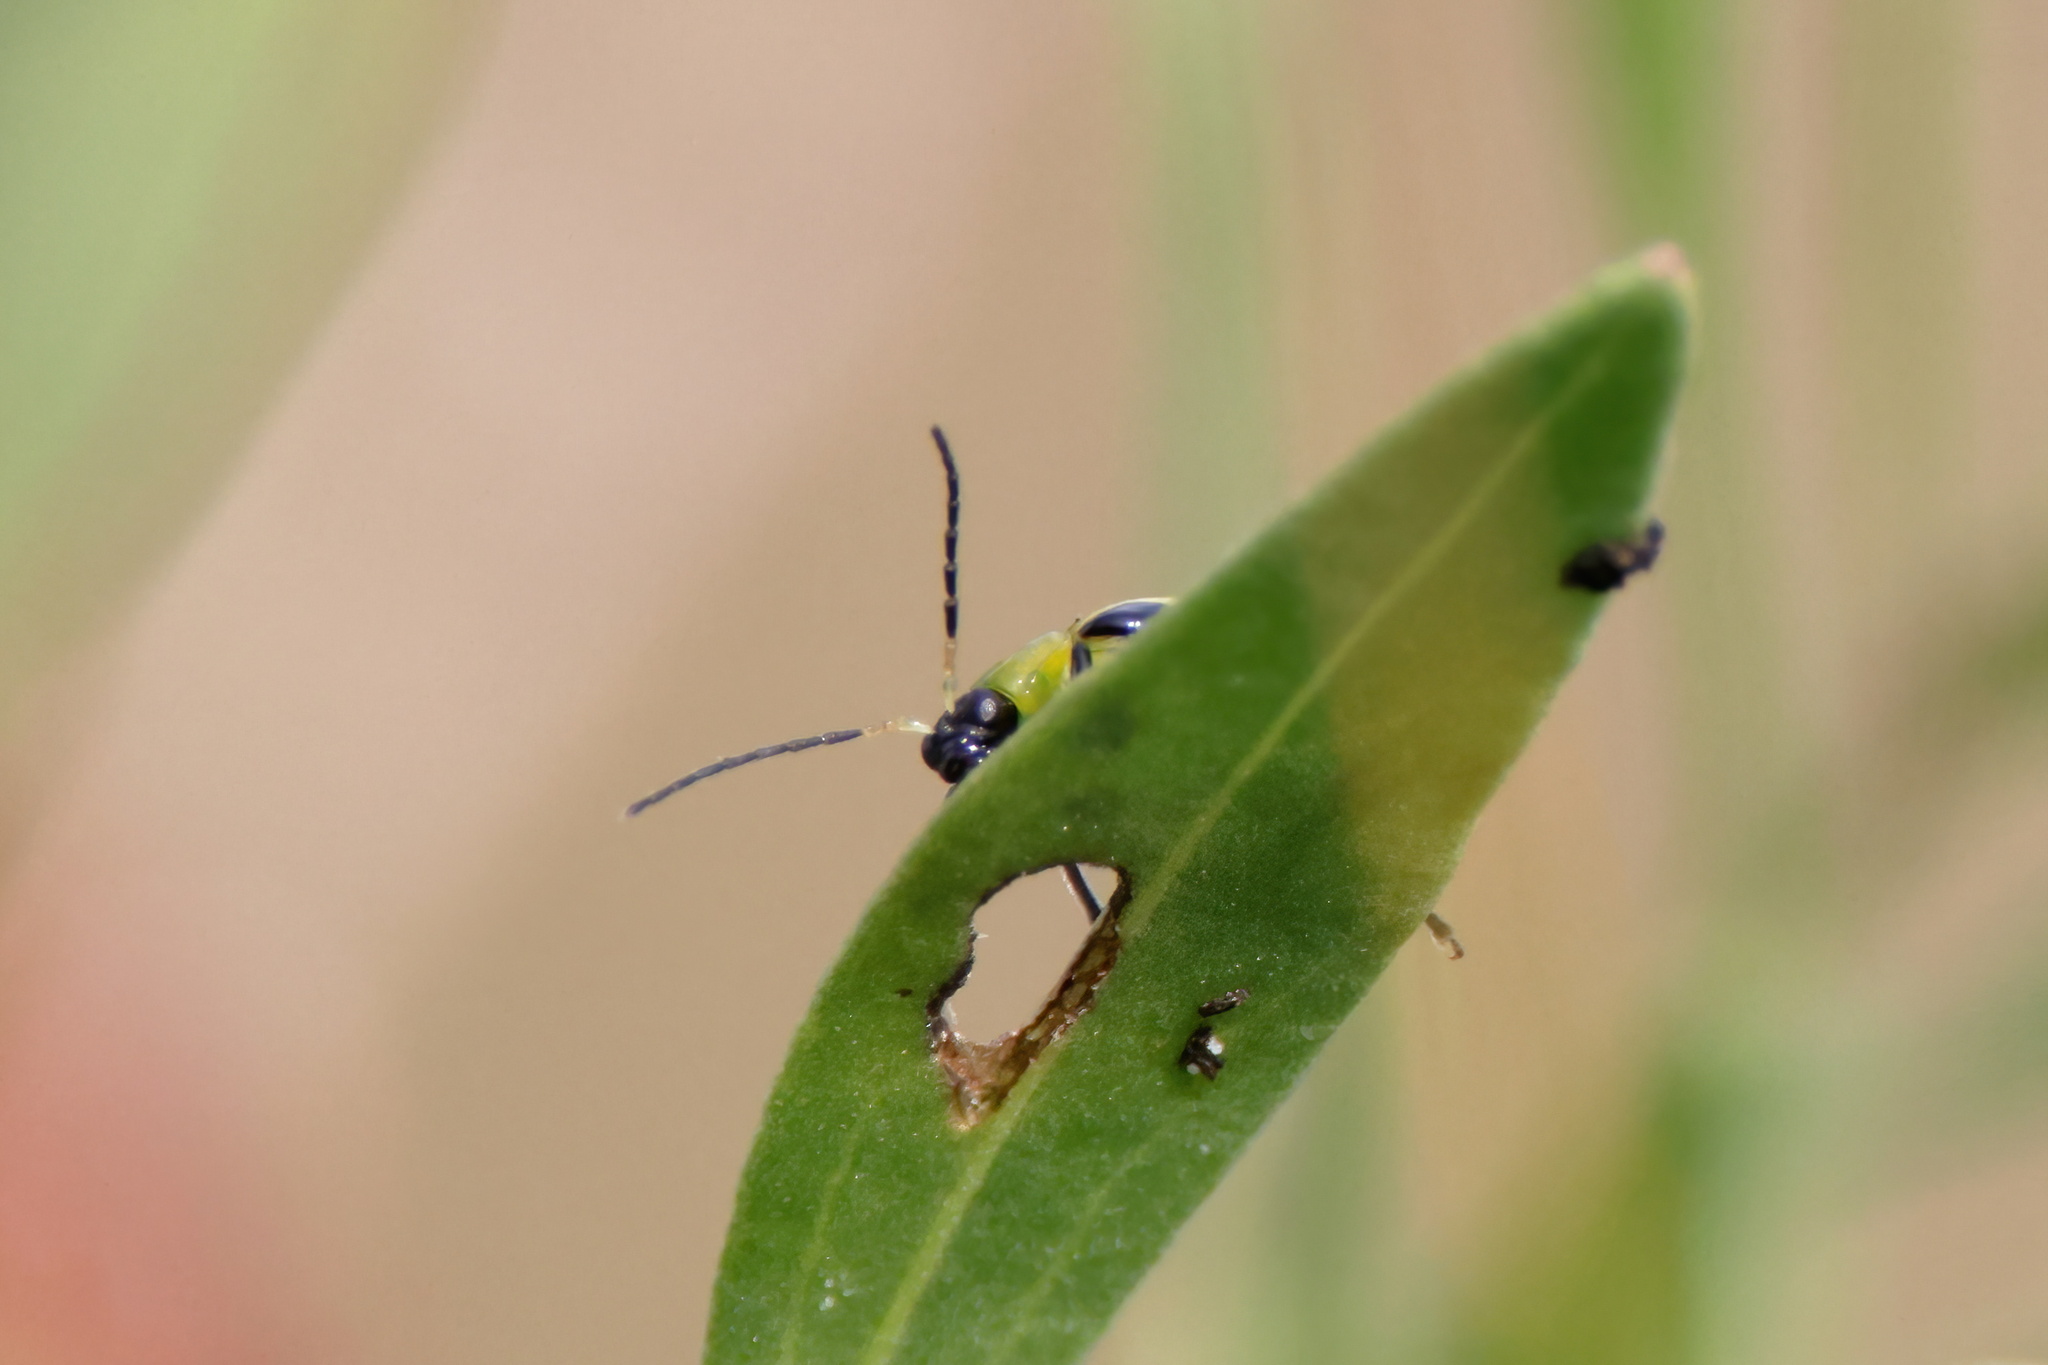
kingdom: Animalia
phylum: Arthropoda
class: Insecta
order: Coleoptera
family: Chrysomelidae
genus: Diabrotica
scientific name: Diabrotica undecimpunctata
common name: Spotted cucumber beetle
